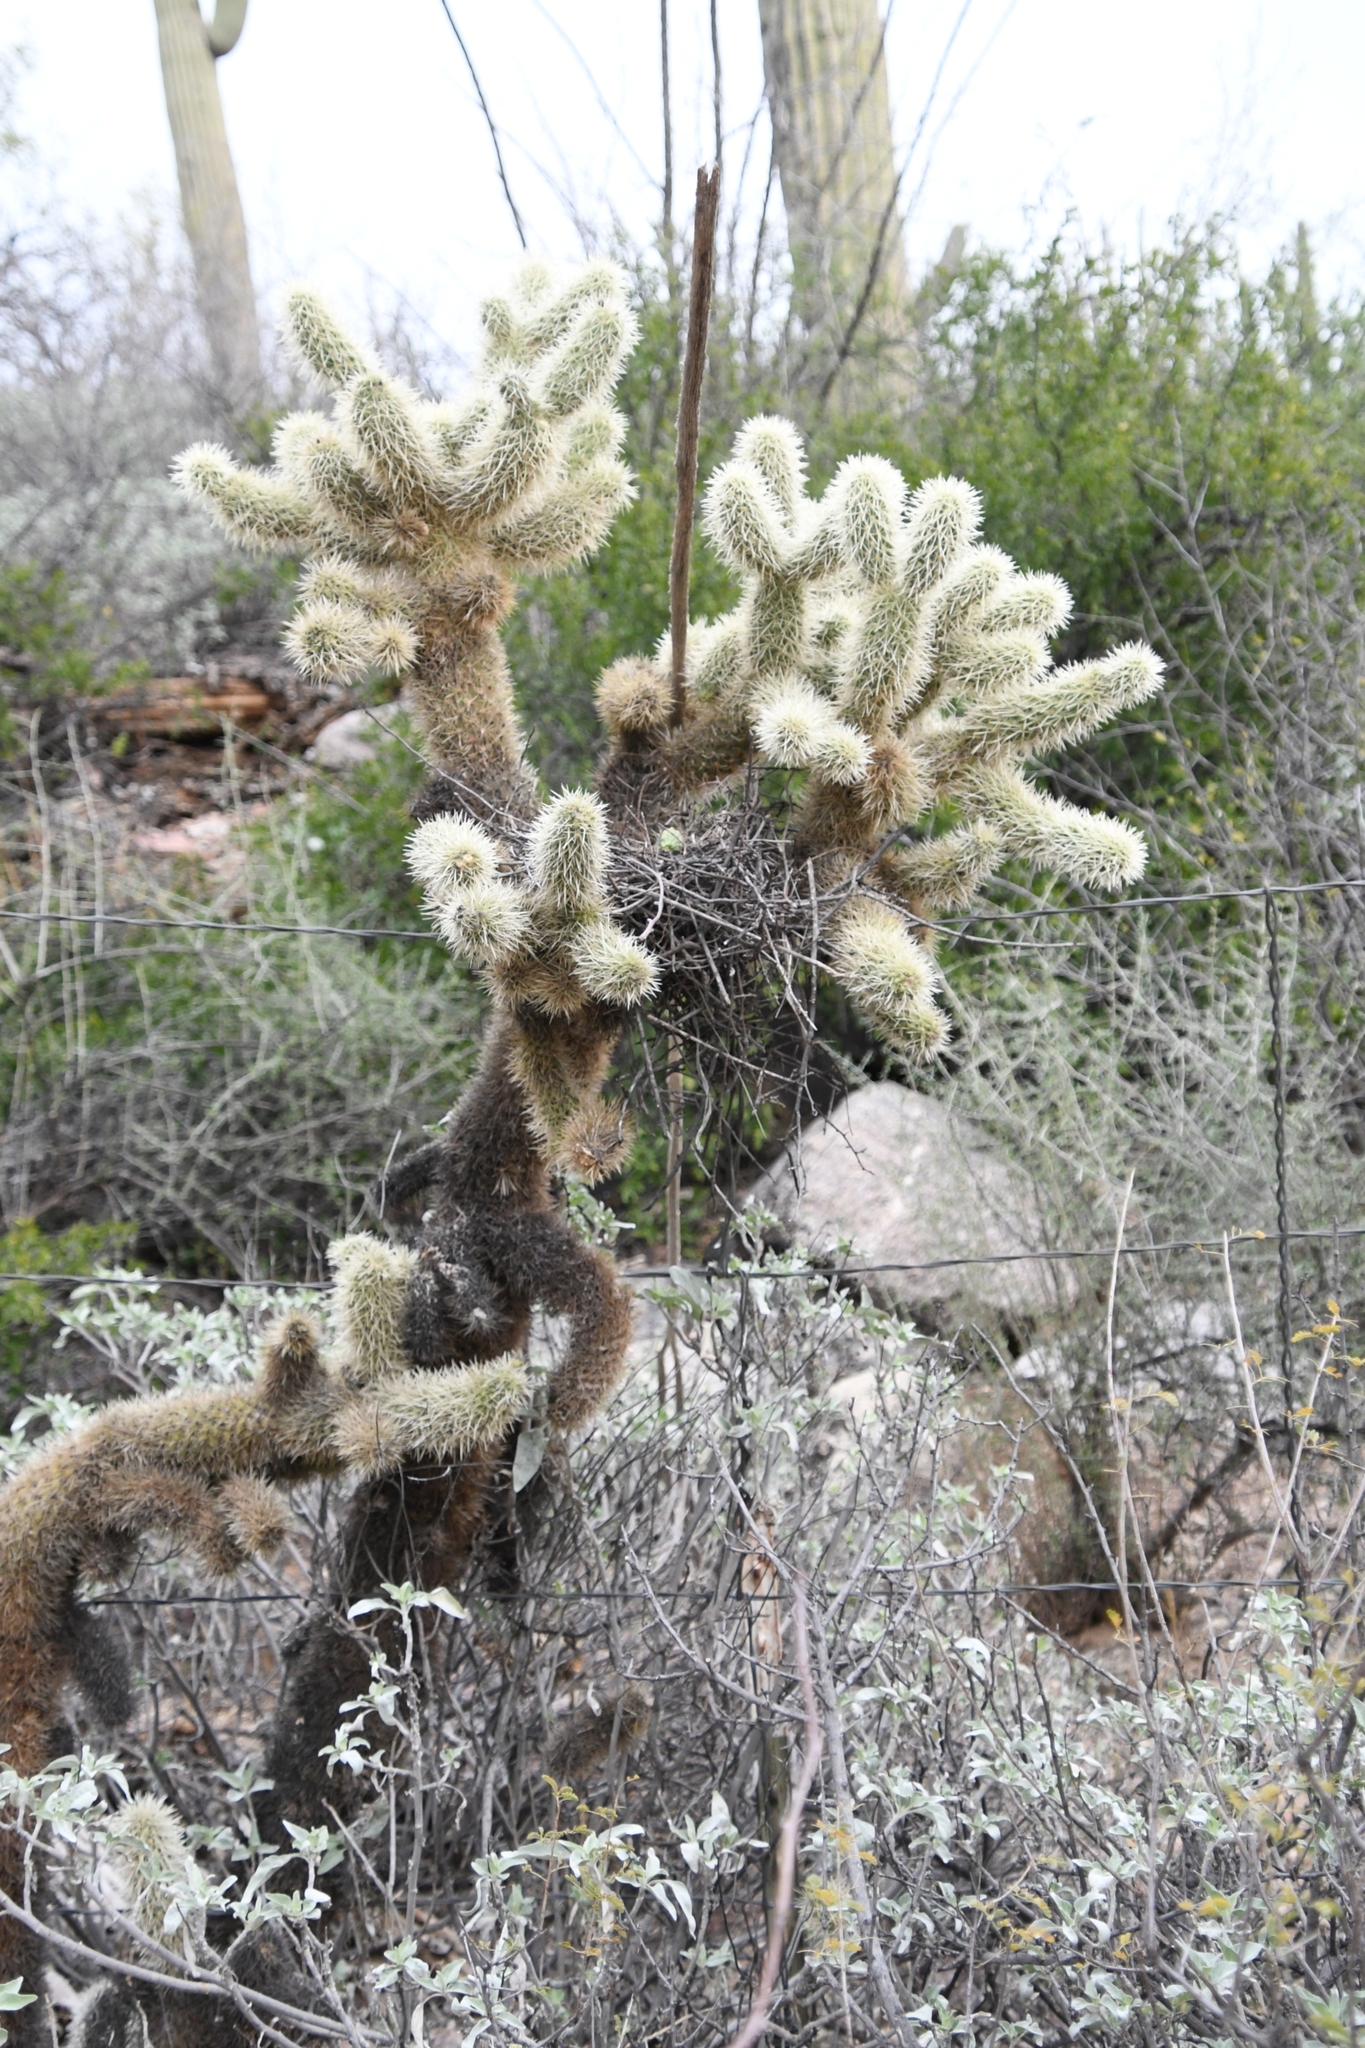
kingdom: Plantae
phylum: Tracheophyta
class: Magnoliopsida
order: Caryophyllales
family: Cactaceae
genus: Cylindropuntia
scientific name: Cylindropuntia fosbergii
